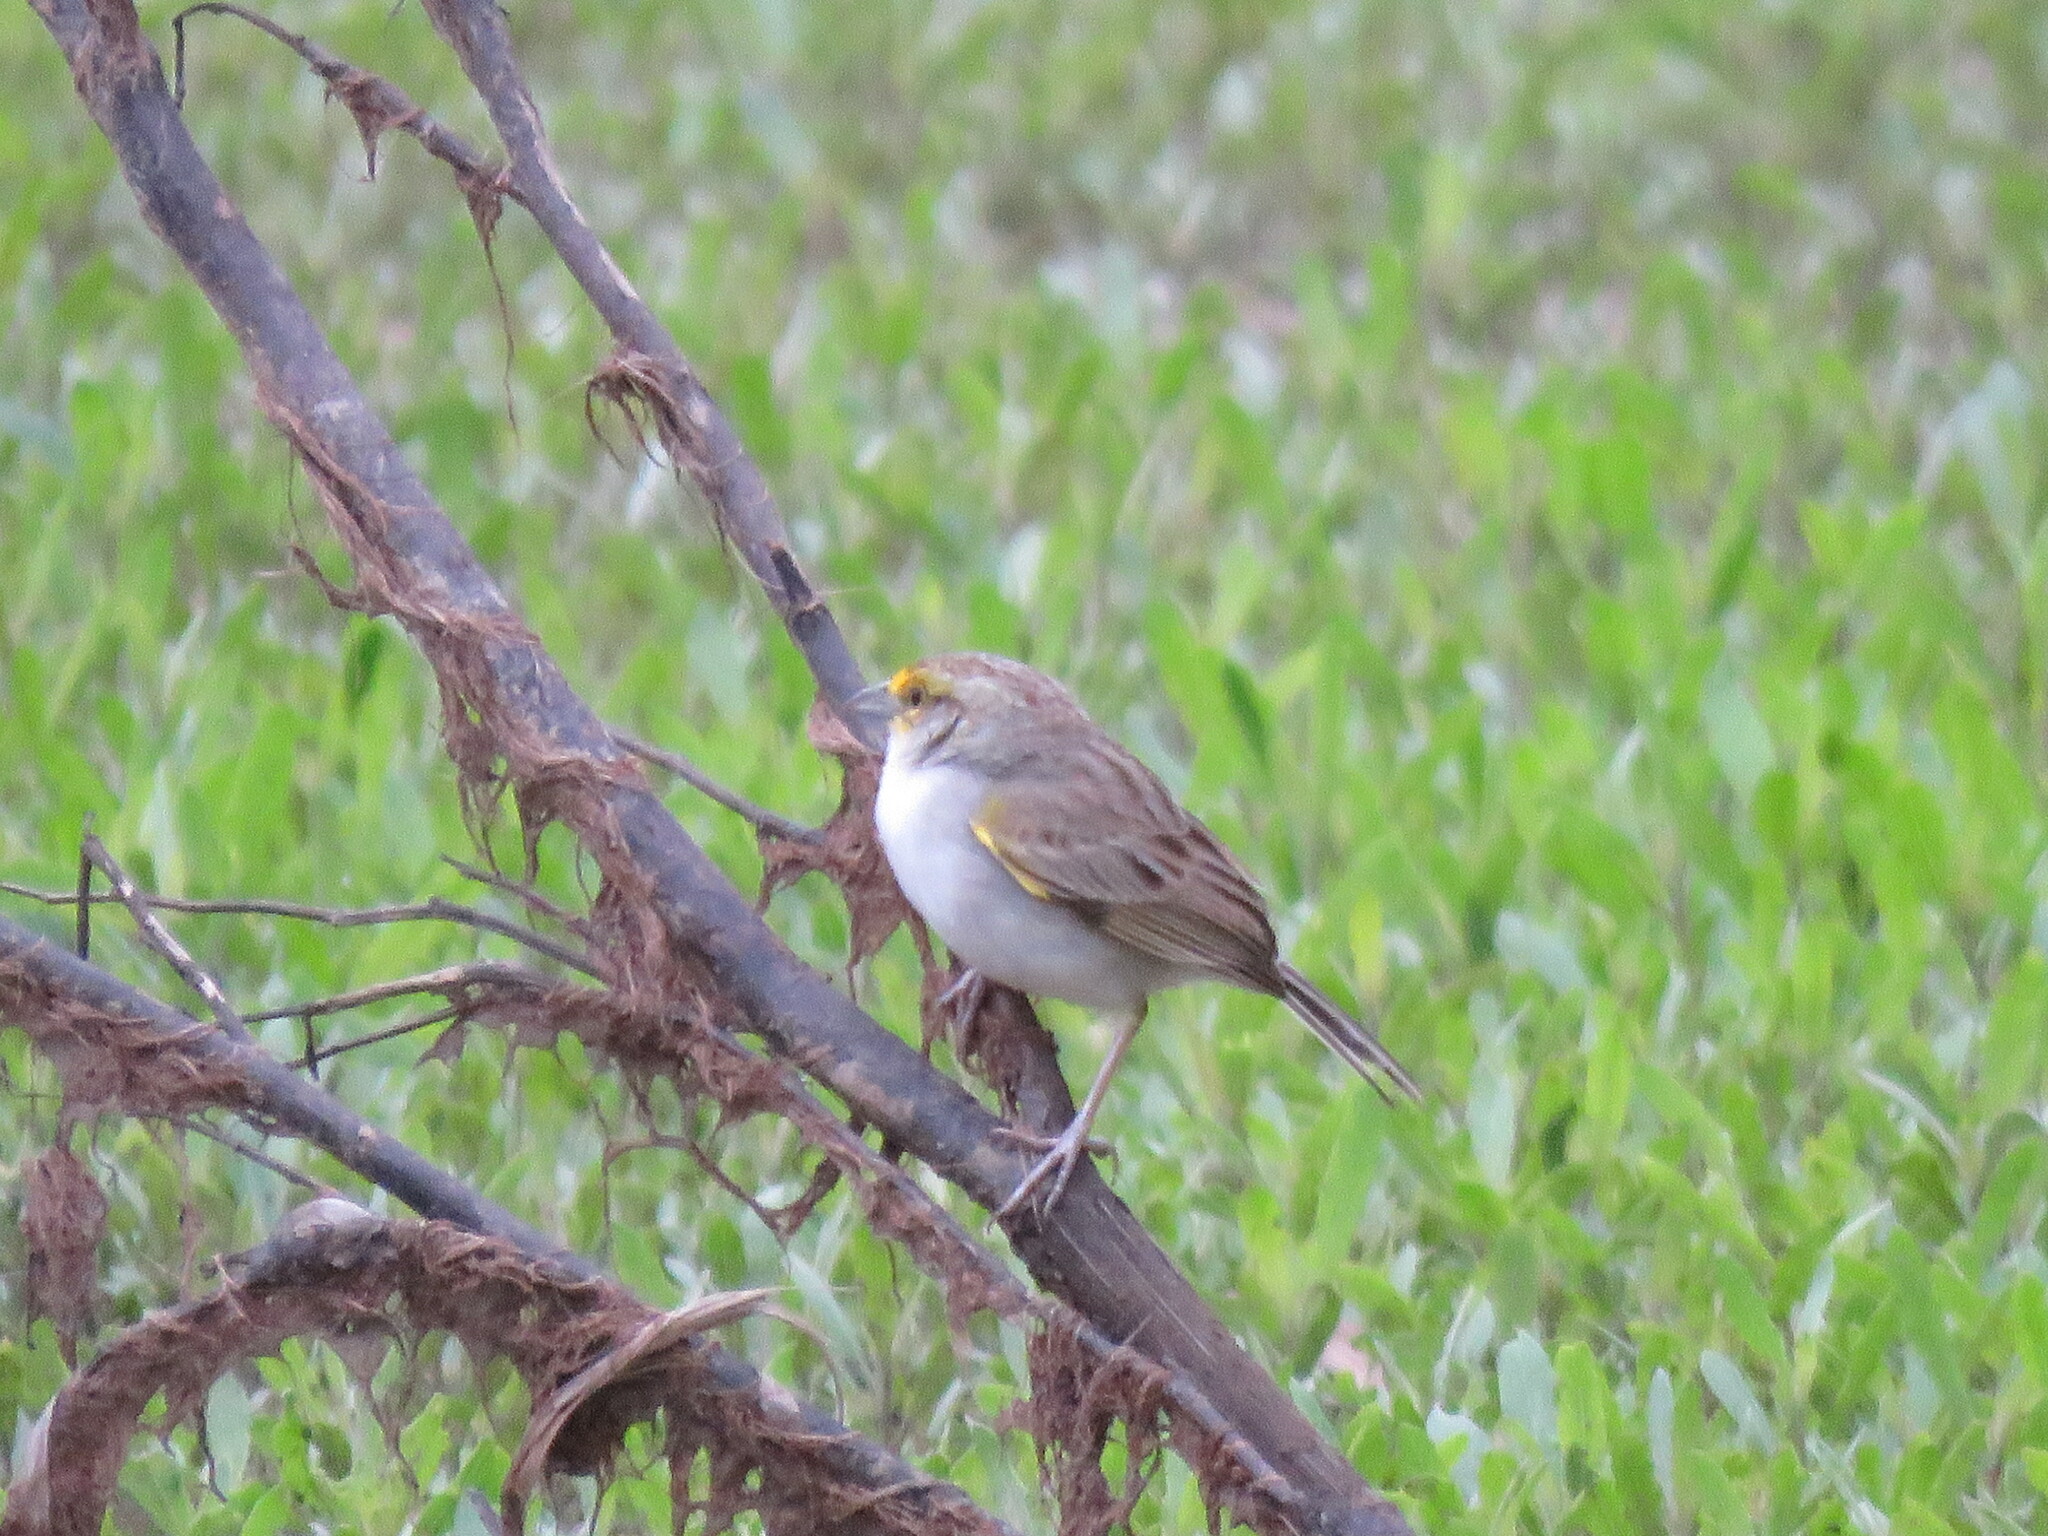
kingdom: Animalia
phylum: Chordata
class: Aves
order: Passeriformes
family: Passerellidae
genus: Ammodramus
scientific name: Ammodramus aurifrons
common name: Yellow-browed sparrow
